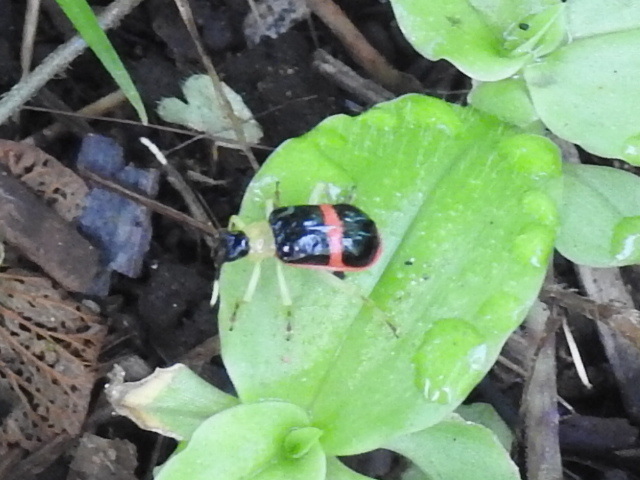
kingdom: Animalia
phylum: Arthropoda
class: Insecta
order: Coleoptera
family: Chrysomelidae
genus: Paratriarius
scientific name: Paratriarius
